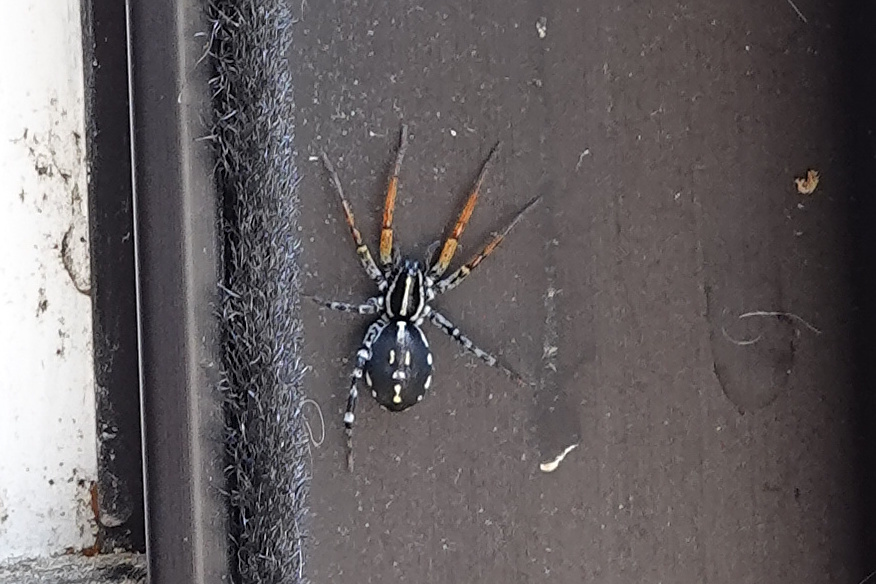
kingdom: Animalia
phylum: Arthropoda
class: Arachnida
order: Araneae
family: Corinnidae
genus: Nyssus
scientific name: Nyssus coloripes
